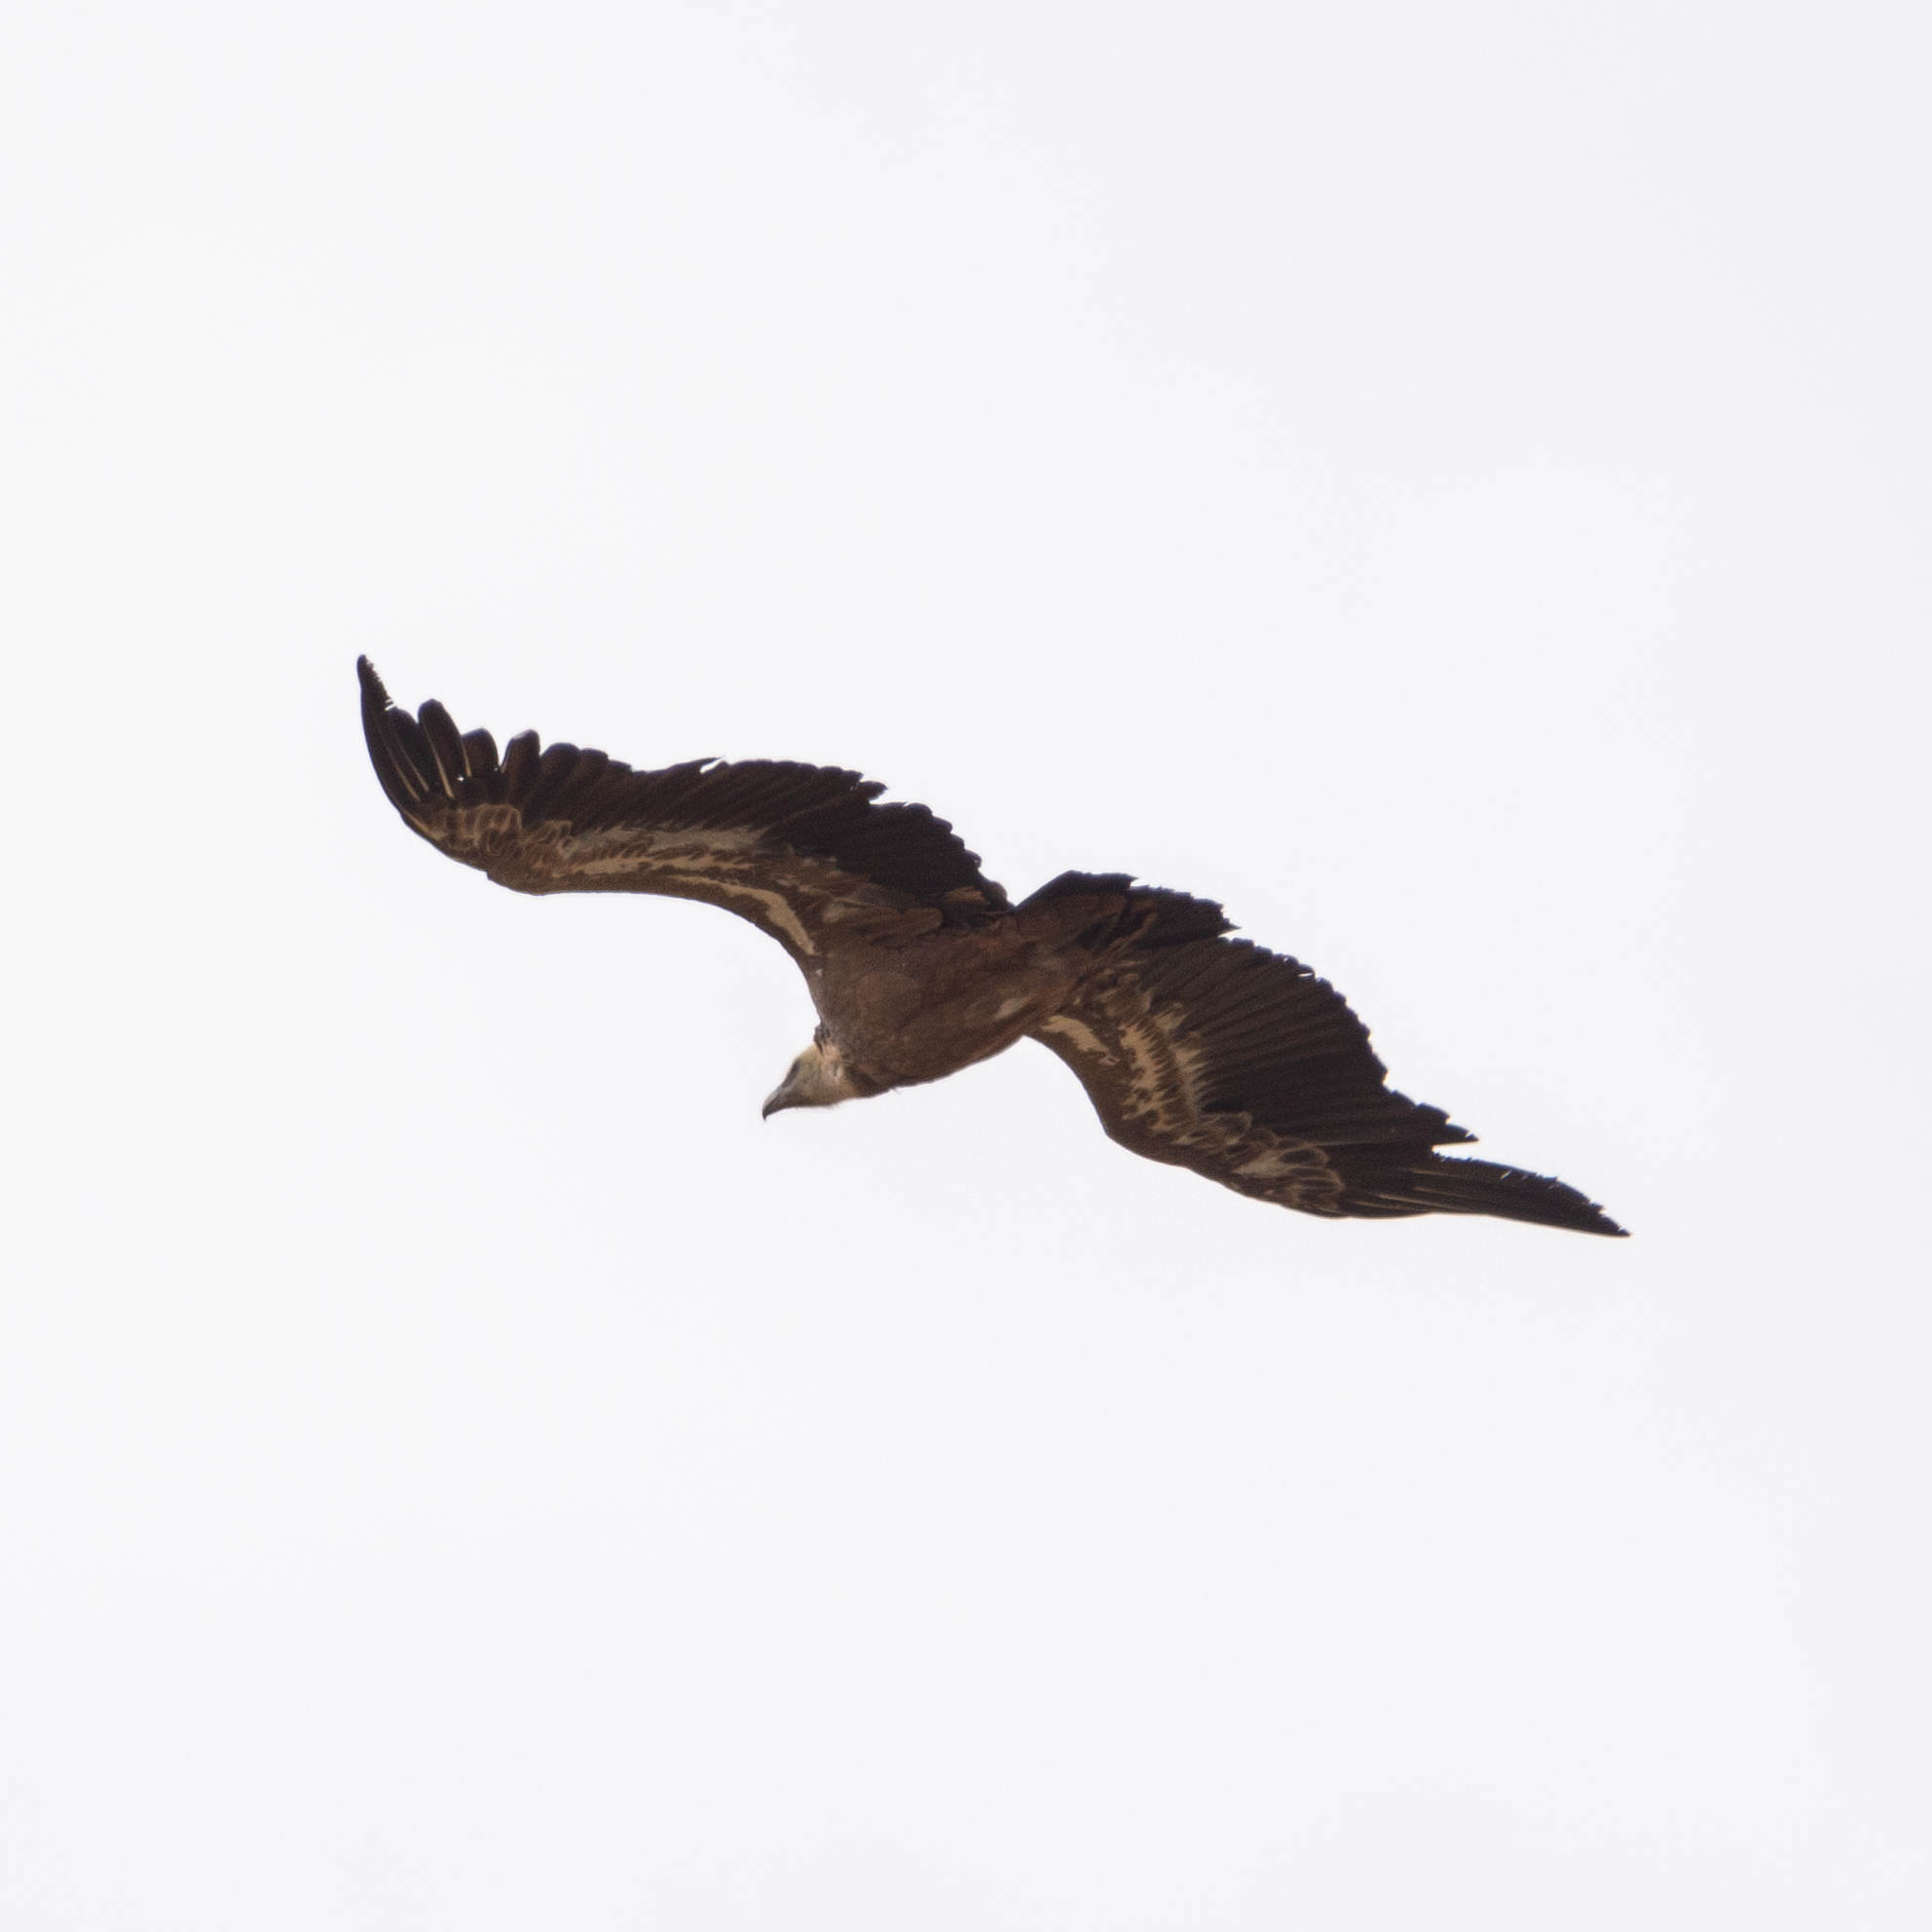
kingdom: Animalia
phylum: Chordata
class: Aves
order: Accipitriformes
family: Accipitridae
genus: Gyps
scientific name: Gyps fulvus
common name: Griffon vulture
